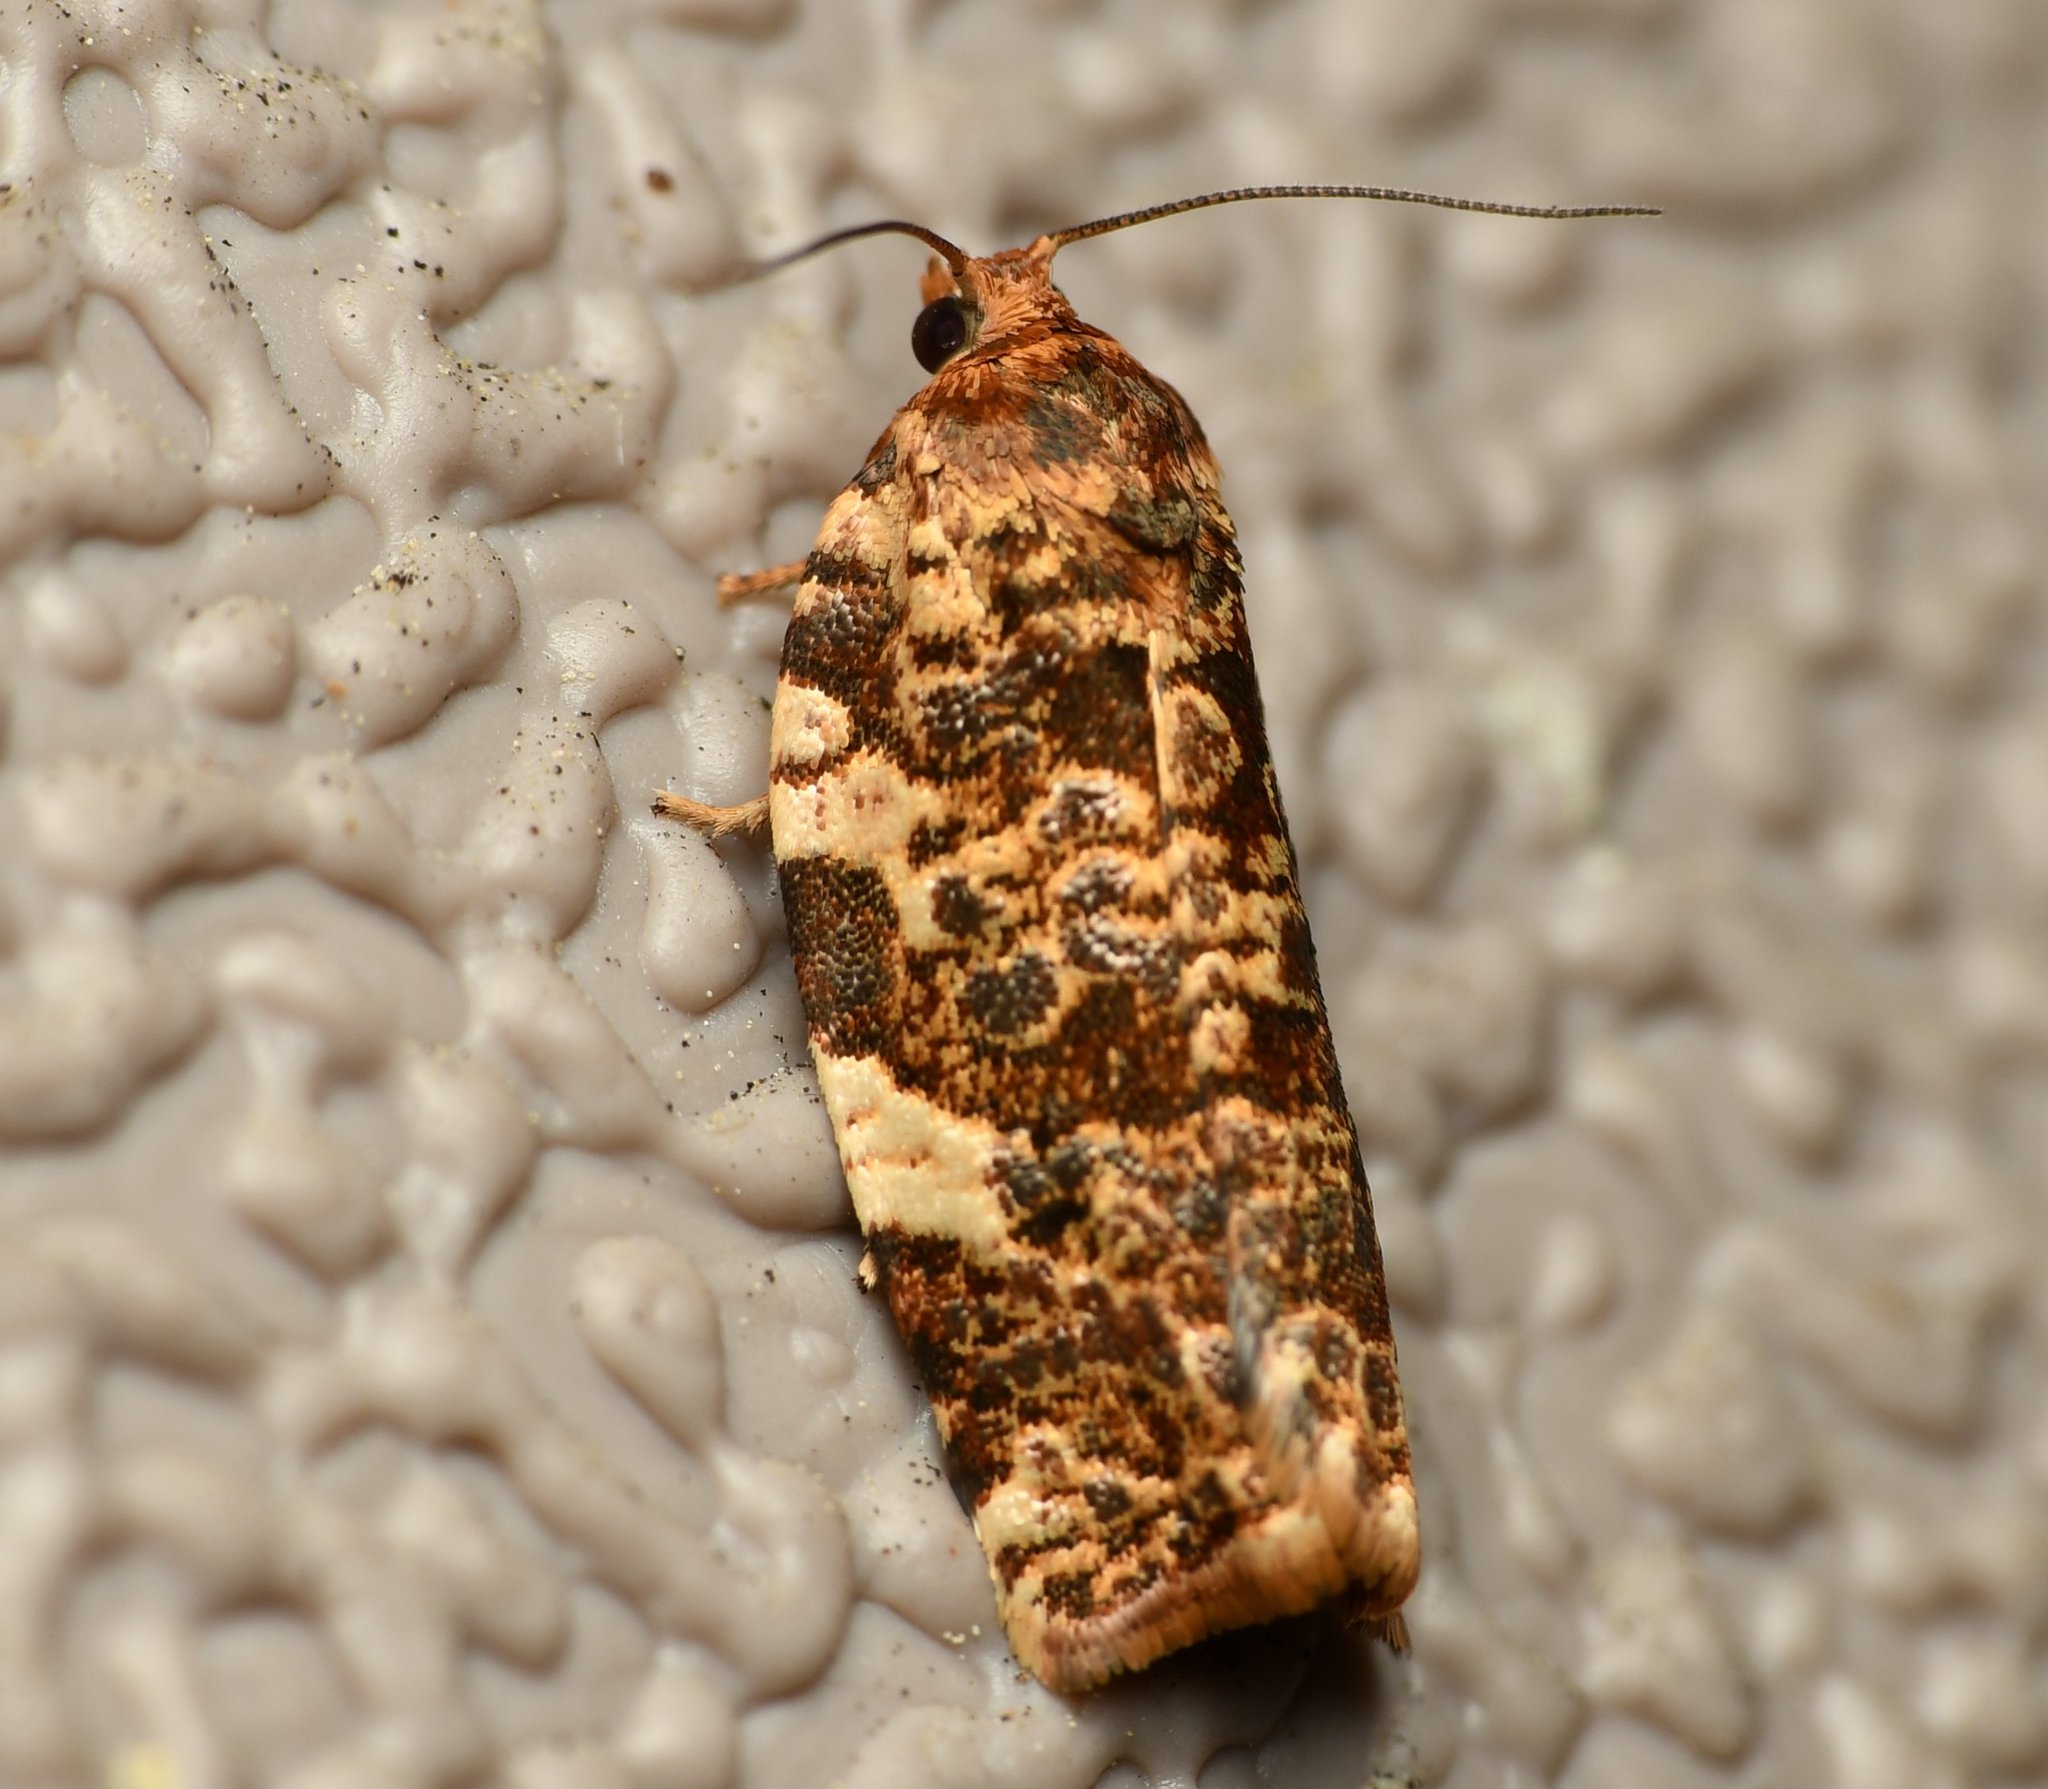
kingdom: Animalia
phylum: Arthropoda
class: Insecta
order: Lepidoptera
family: Tortricidae
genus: Archips
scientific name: Archips argyrospila
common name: Fruit-tree leafroller moth
